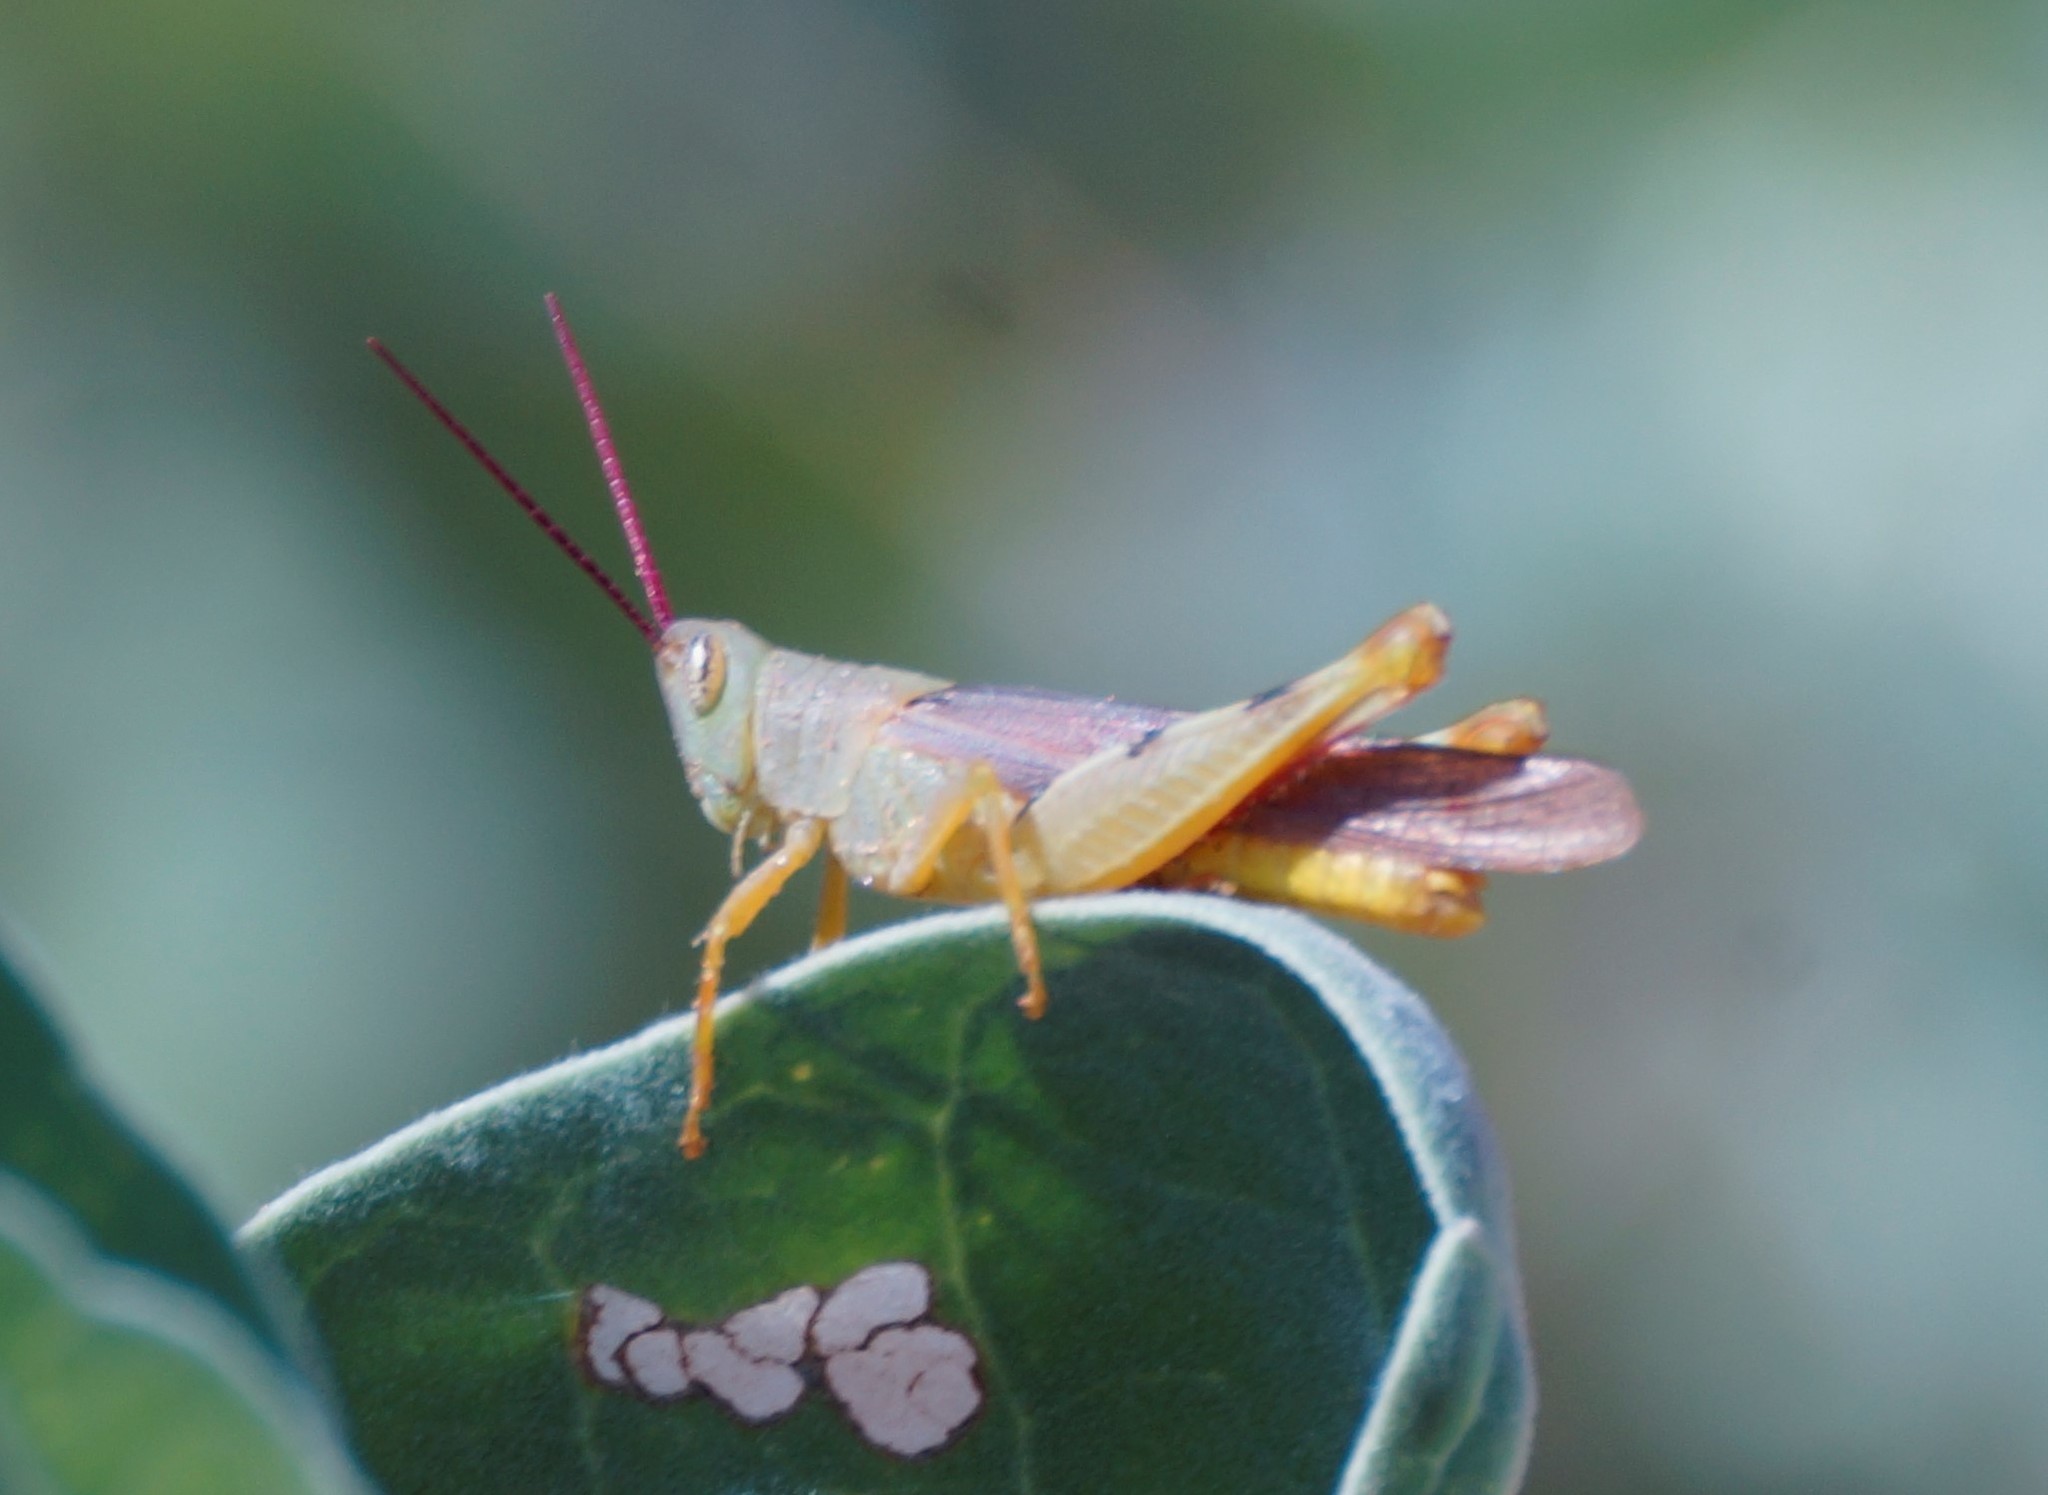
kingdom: Animalia
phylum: Arthropoda
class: Insecta
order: Orthoptera
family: Acrididae
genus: Adlappa
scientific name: Adlappa erythroptera
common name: Speckled red-wing
